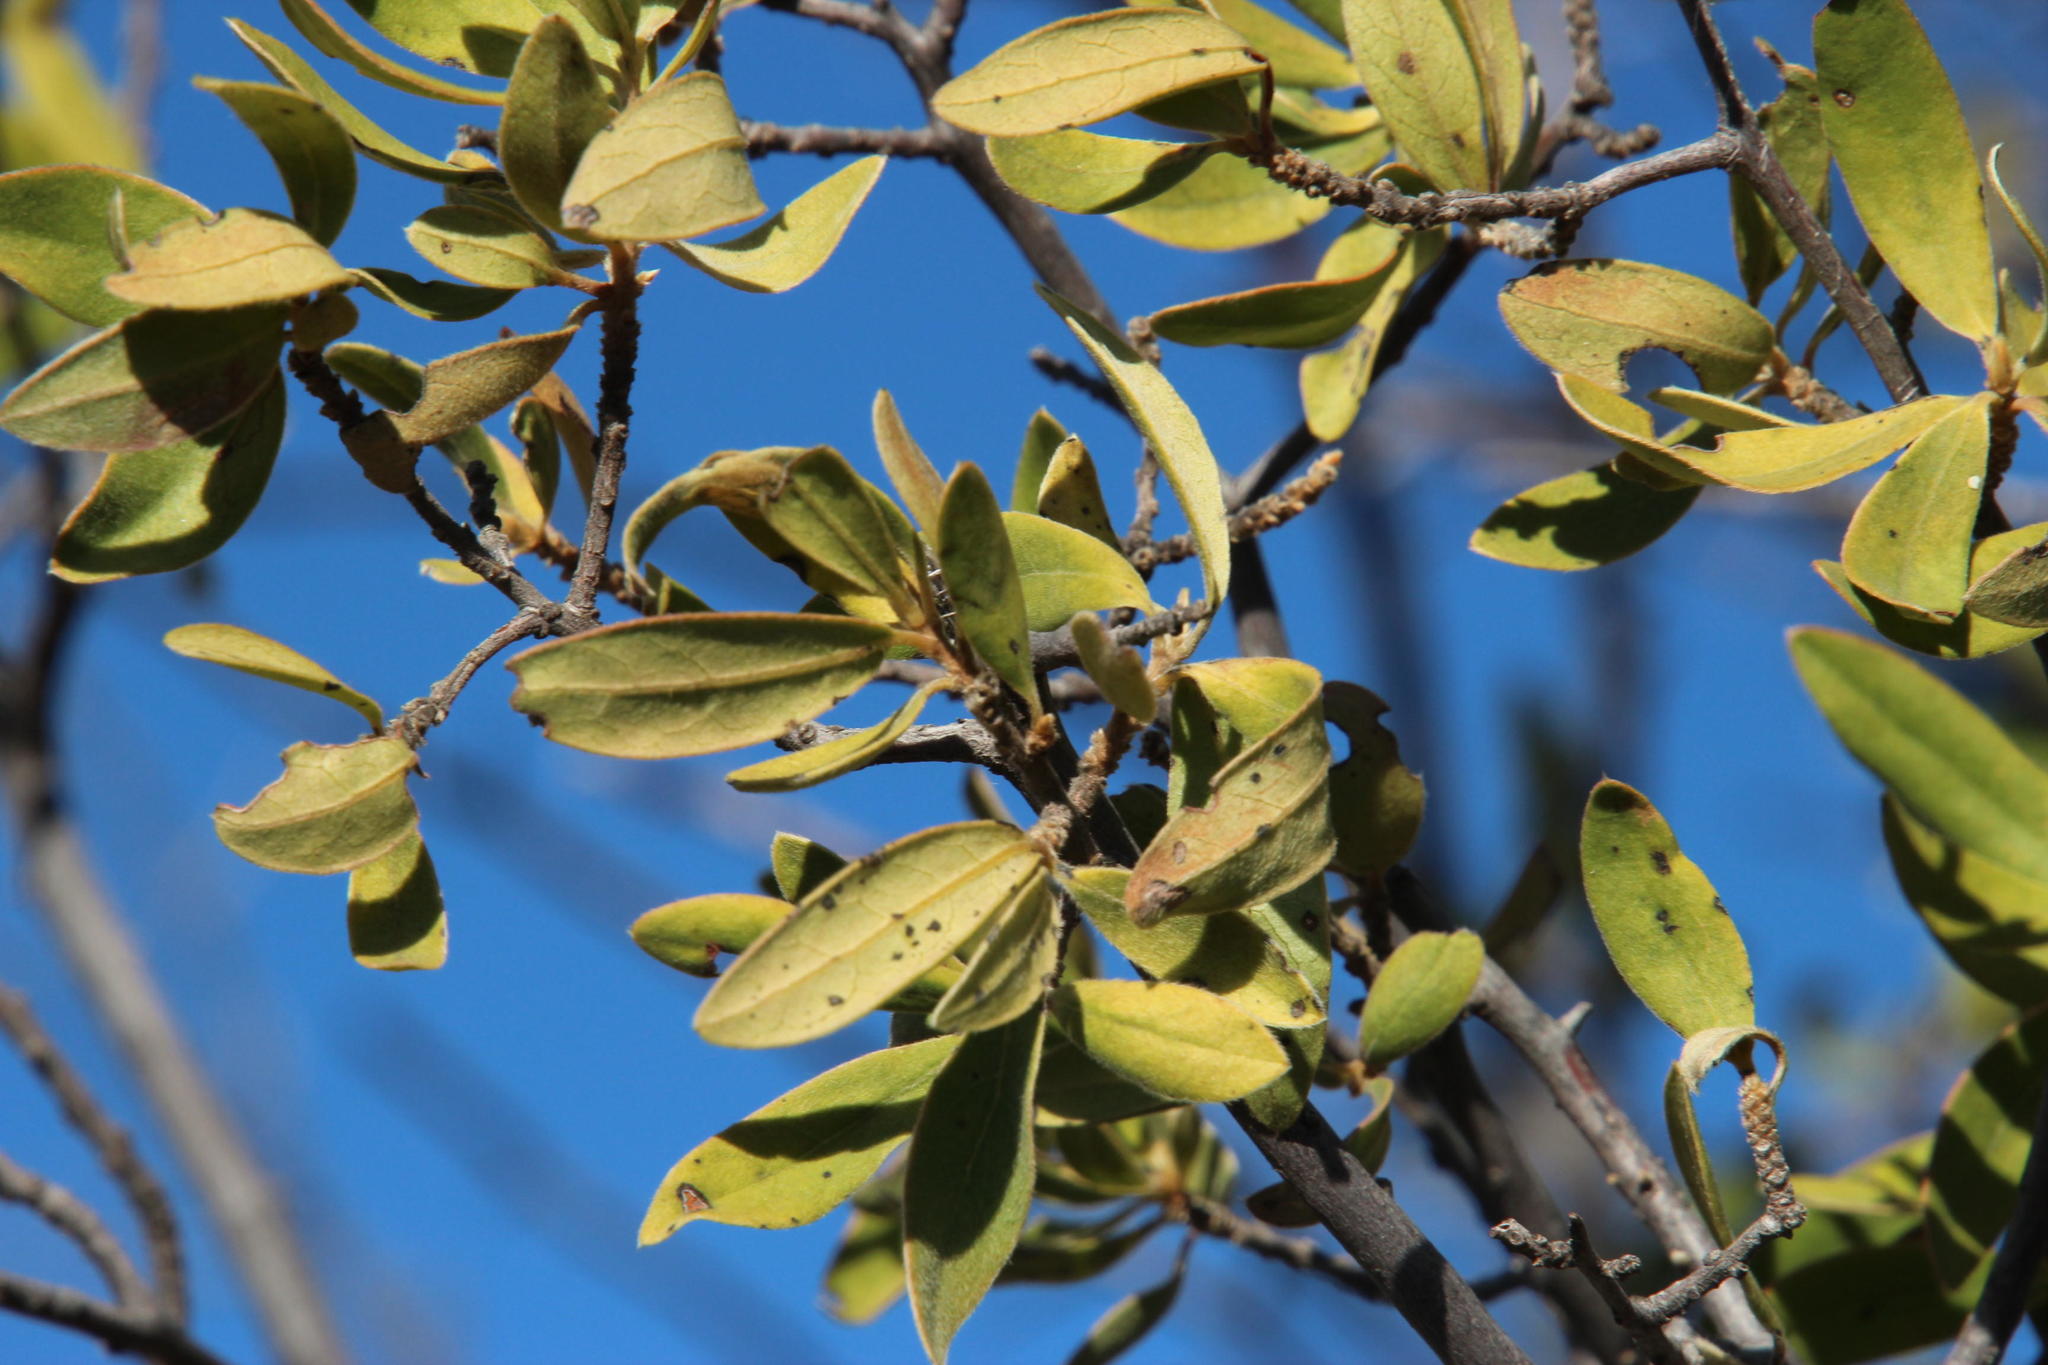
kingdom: Plantae
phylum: Tracheophyta
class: Magnoliopsida
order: Ericales
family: Ebenaceae
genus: Diospyros
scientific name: Diospyros lycioides
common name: Red star apple
